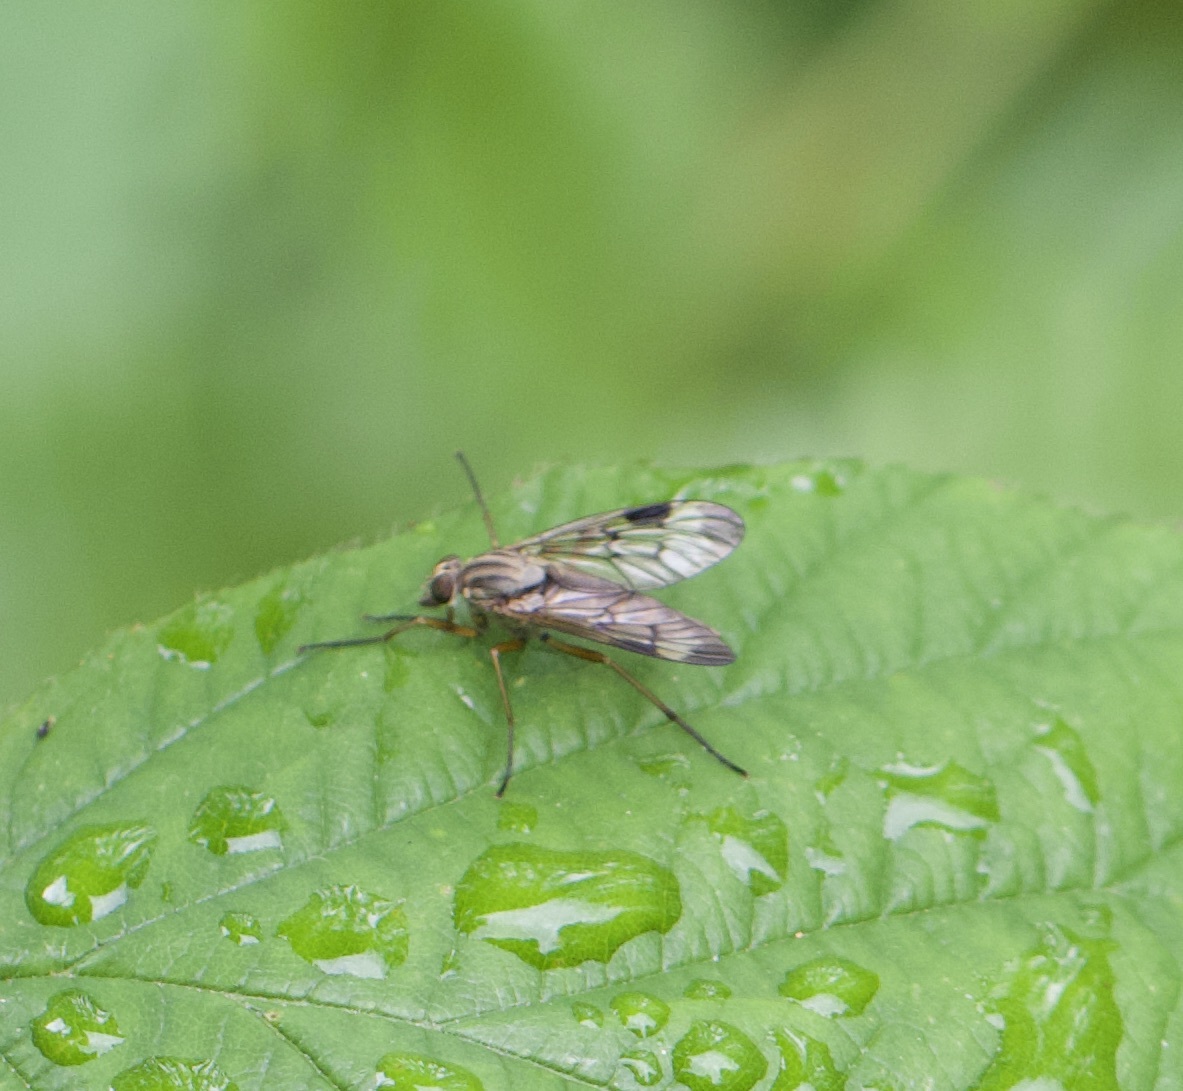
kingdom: Animalia
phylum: Arthropoda
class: Insecta
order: Diptera
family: Rhagionidae
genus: Rhagio
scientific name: Rhagio scolopacea
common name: Downlooker snipefly
